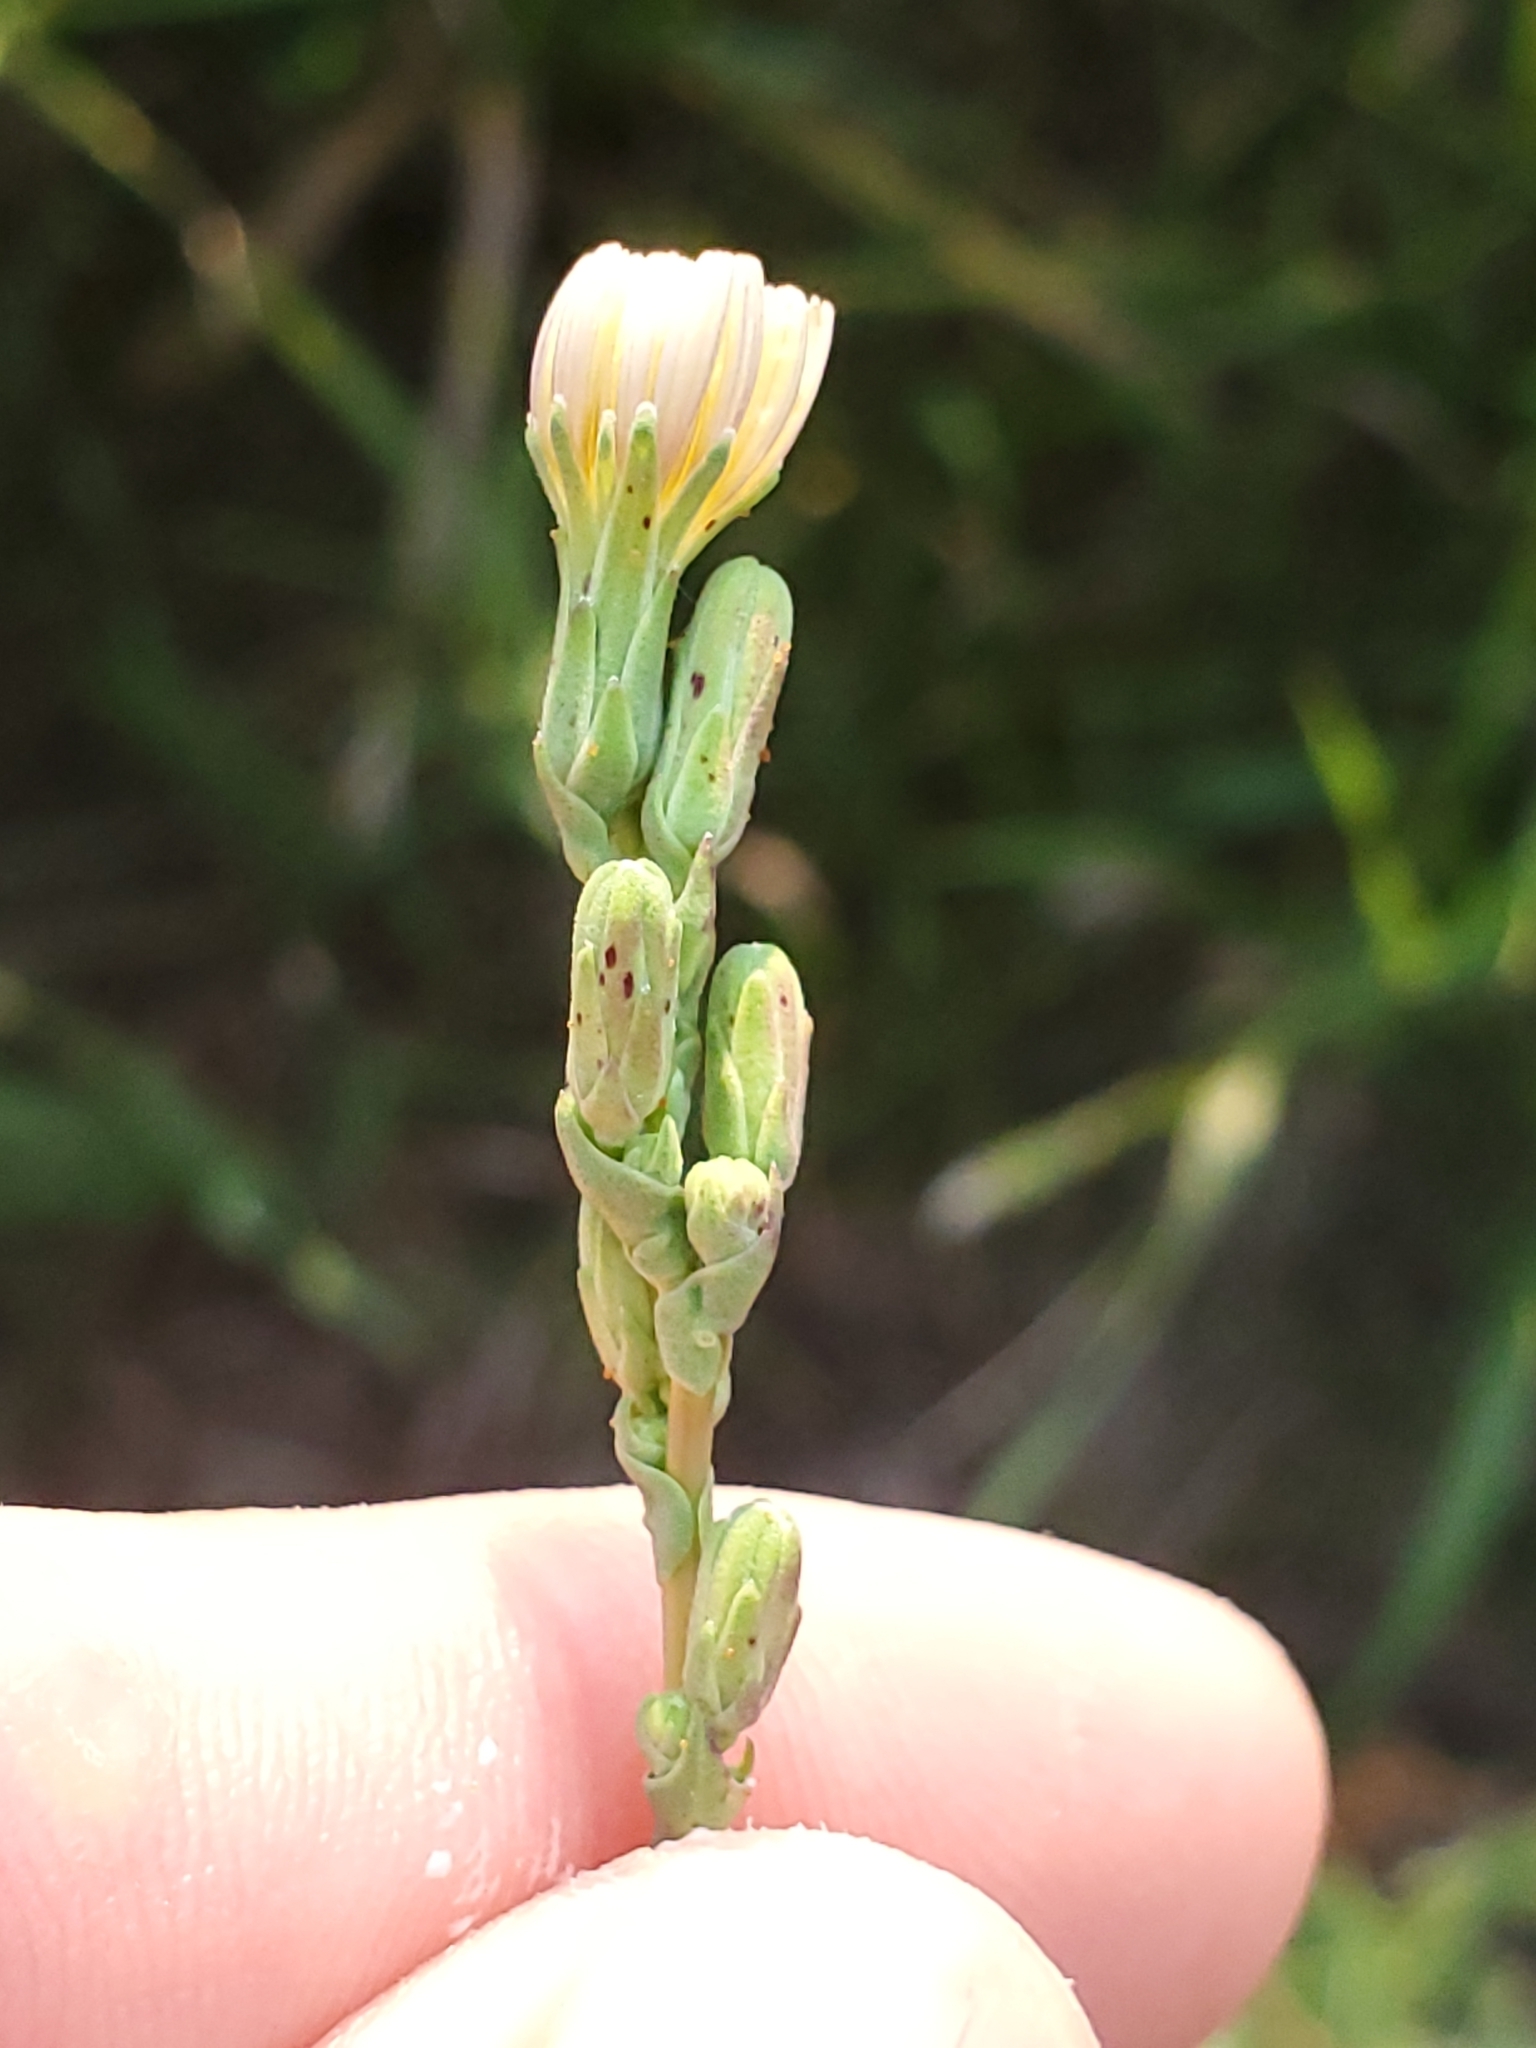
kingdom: Plantae
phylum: Tracheophyta
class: Magnoliopsida
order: Asterales
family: Asteraceae
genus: Lactuca
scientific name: Lactuca serriola
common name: Prickly lettuce
